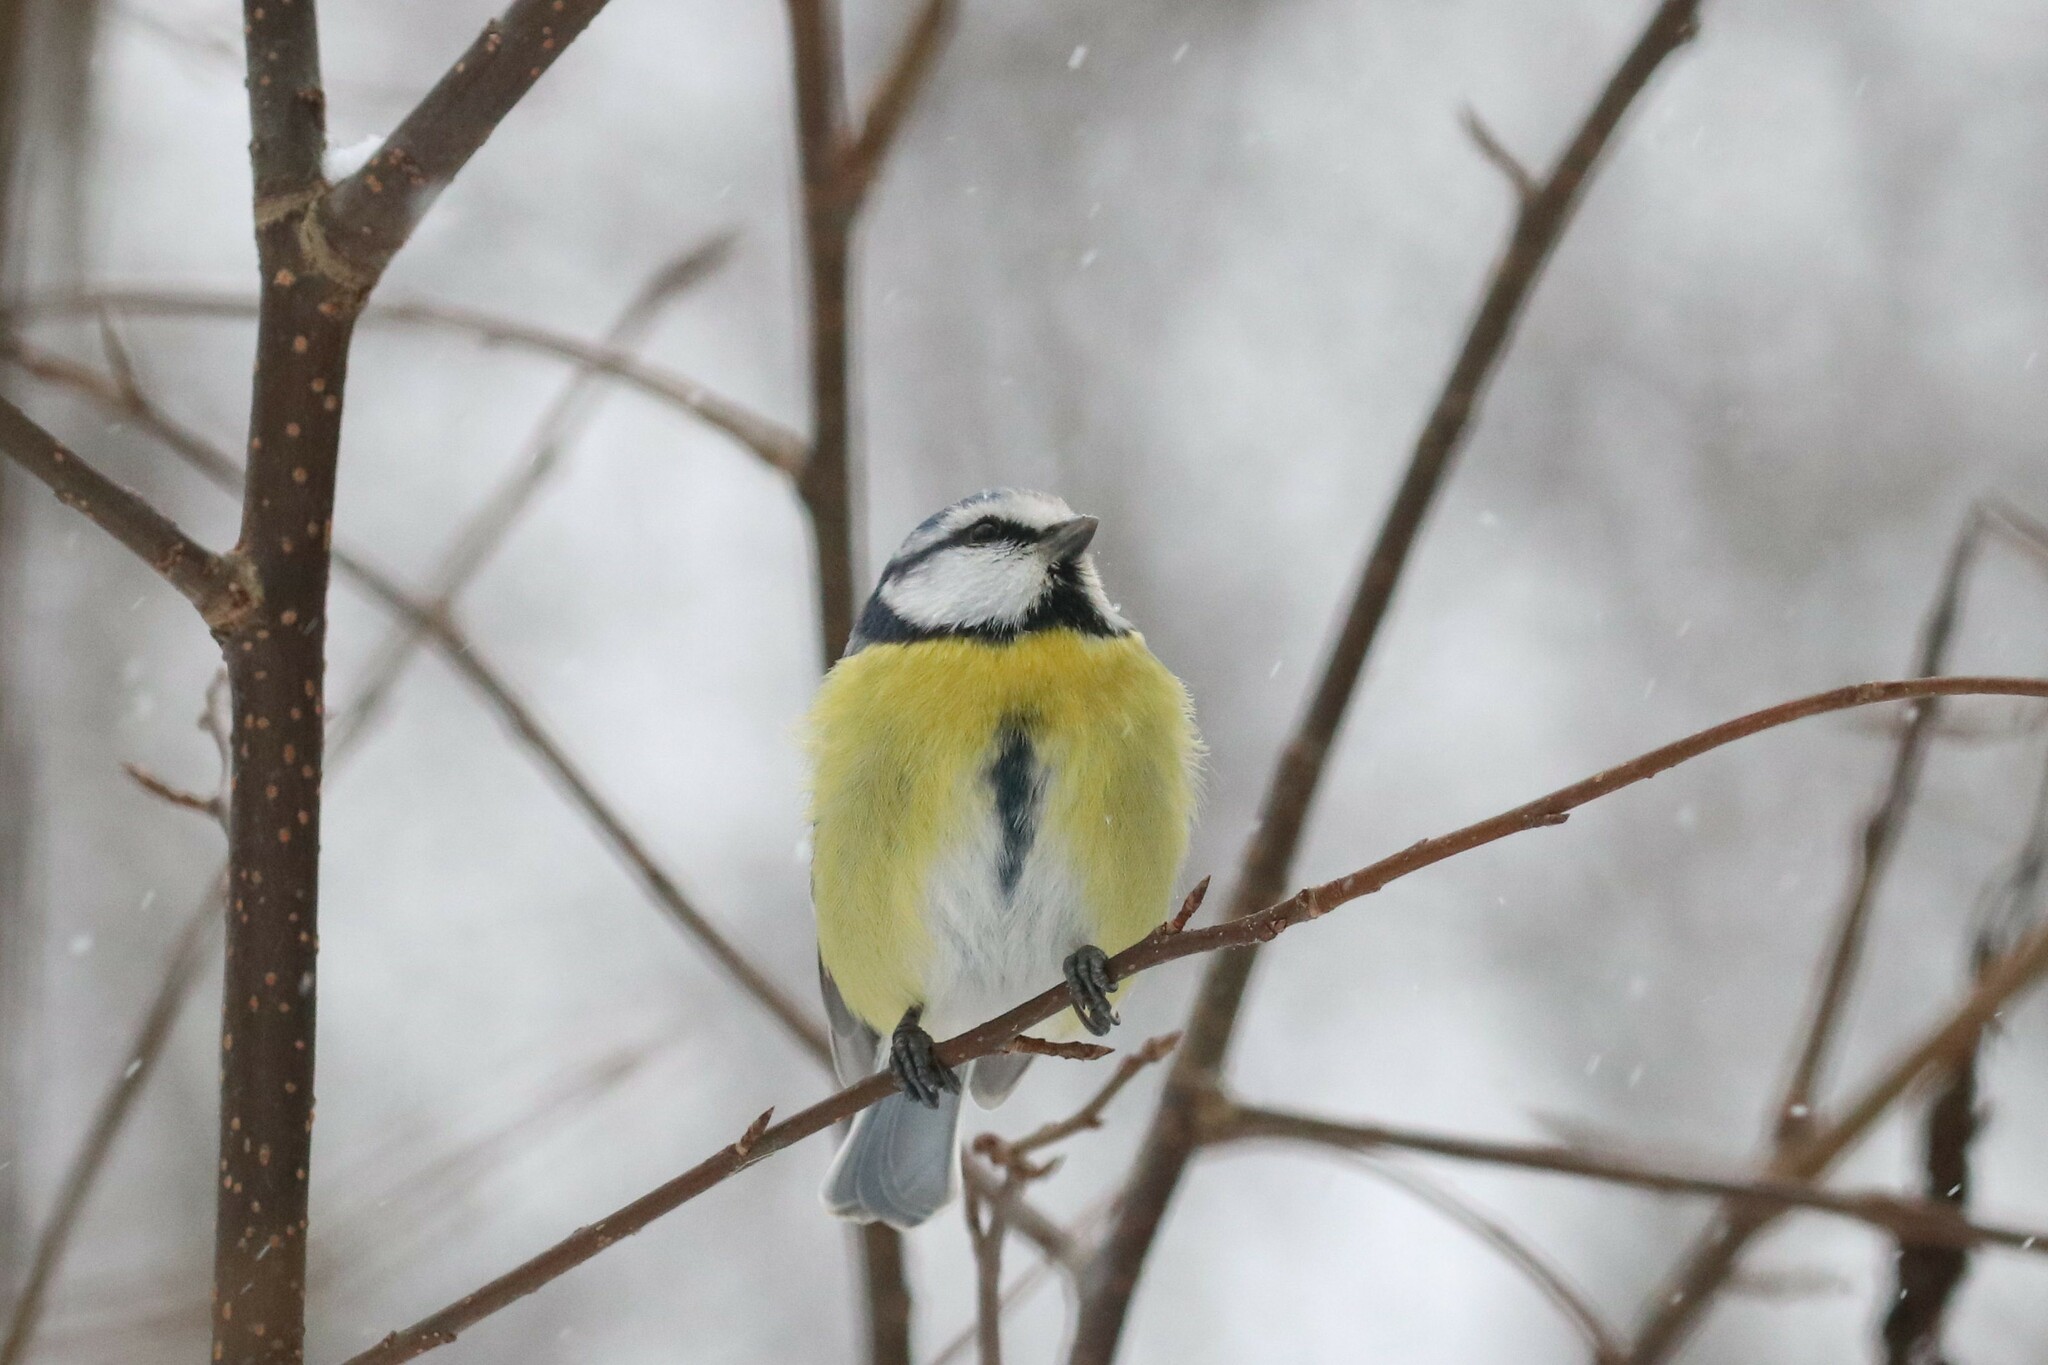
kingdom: Animalia
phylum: Chordata
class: Aves
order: Passeriformes
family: Paridae
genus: Cyanistes
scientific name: Cyanistes caeruleus
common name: Eurasian blue tit
